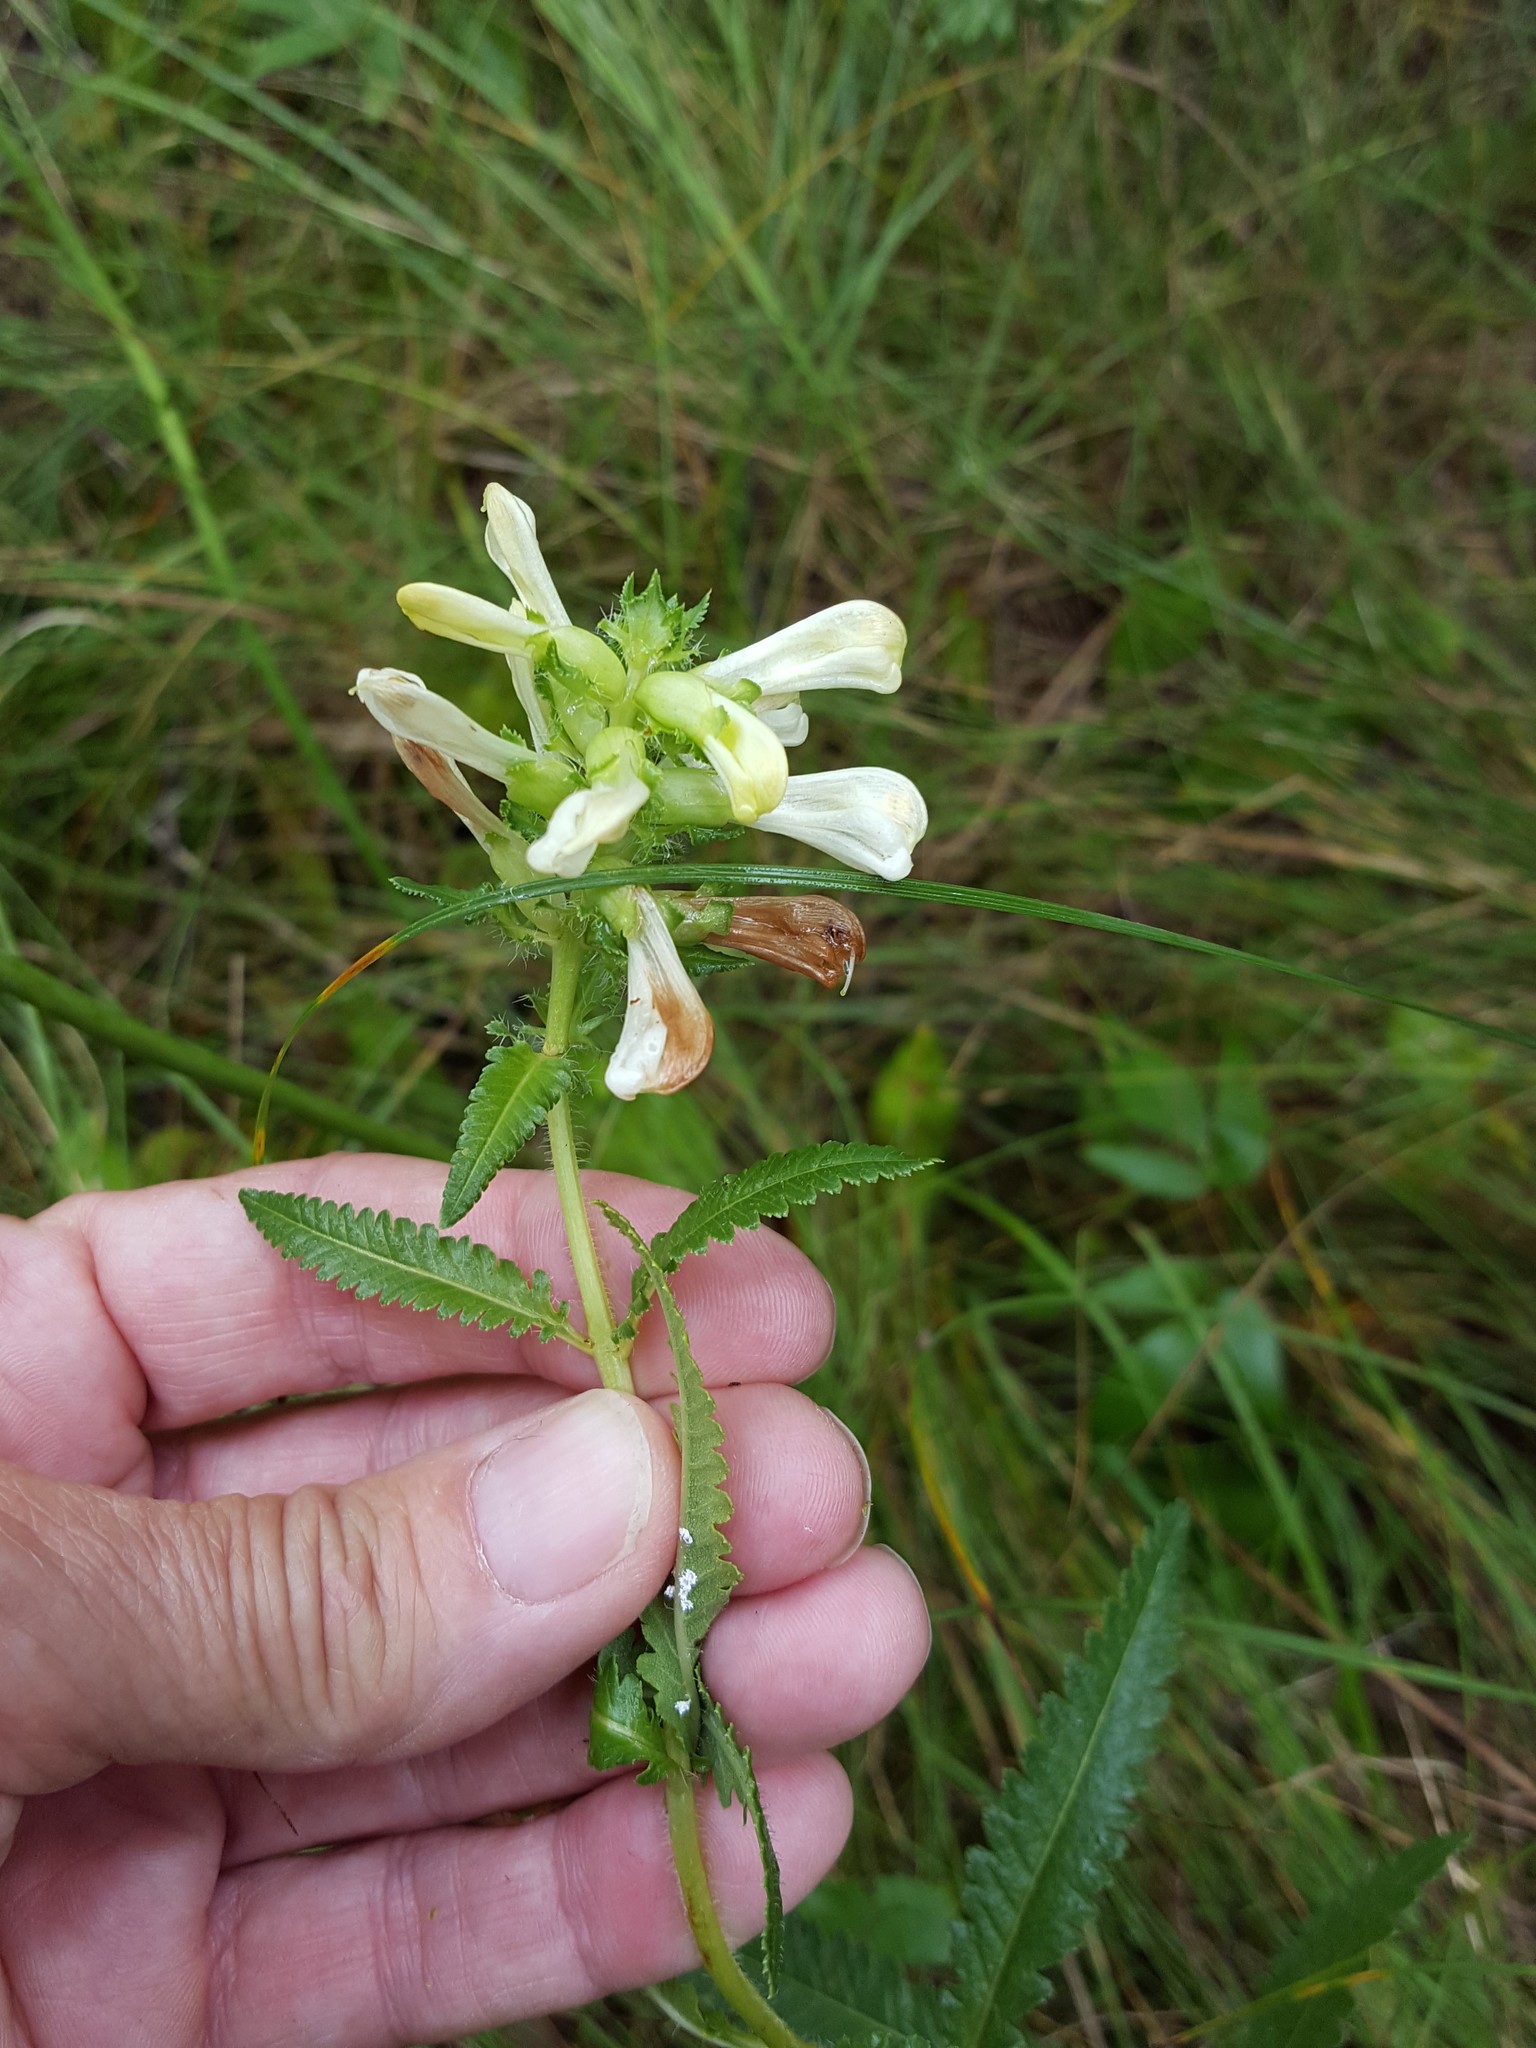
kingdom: Plantae
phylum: Tracheophyta
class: Magnoliopsida
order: Lamiales
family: Orobanchaceae
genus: Pedicularis
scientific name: Pedicularis lanceolata
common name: Swamp lousewort
